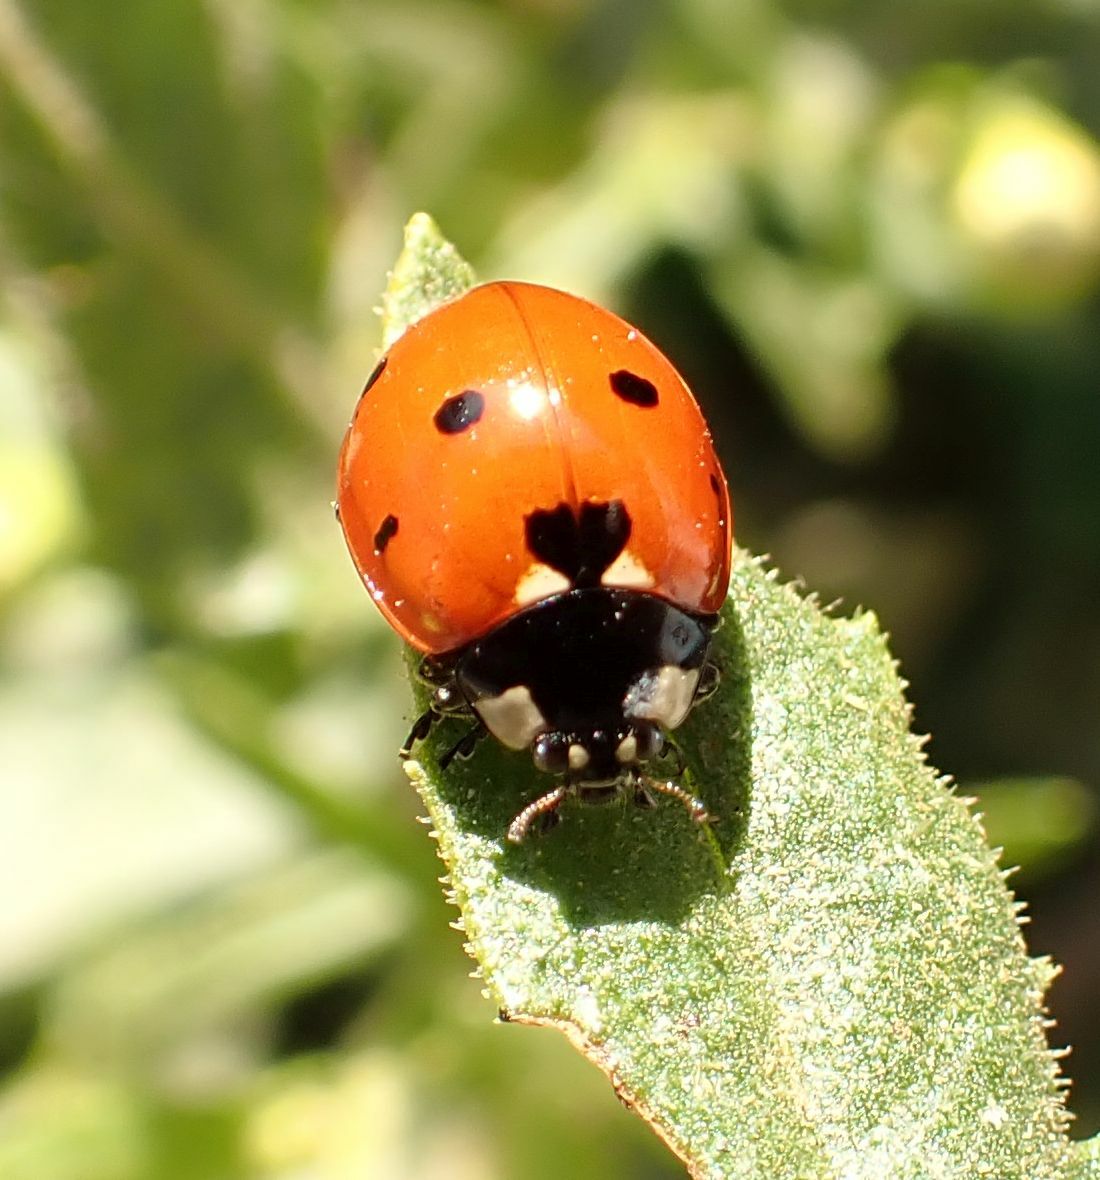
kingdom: Animalia
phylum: Arthropoda
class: Insecta
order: Coleoptera
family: Coccinellidae
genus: Coccinella
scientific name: Coccinella septempunctata
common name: Sevenspotted lady beetle
